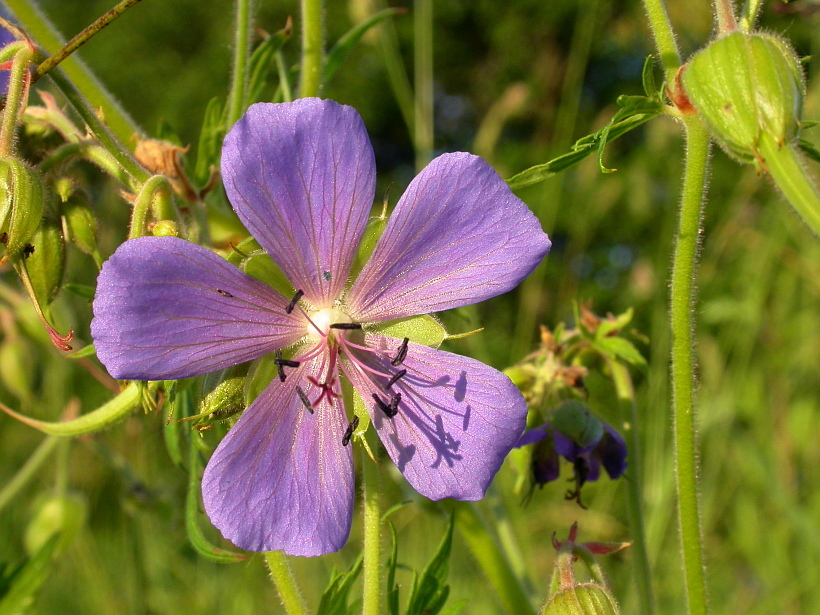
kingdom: Plantae
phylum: Tracheophyta
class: Magnoliopsida
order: Geraniales
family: Geraniaceae
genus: Geranium
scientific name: Geranium pratense
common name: Meadow crane's-bill
